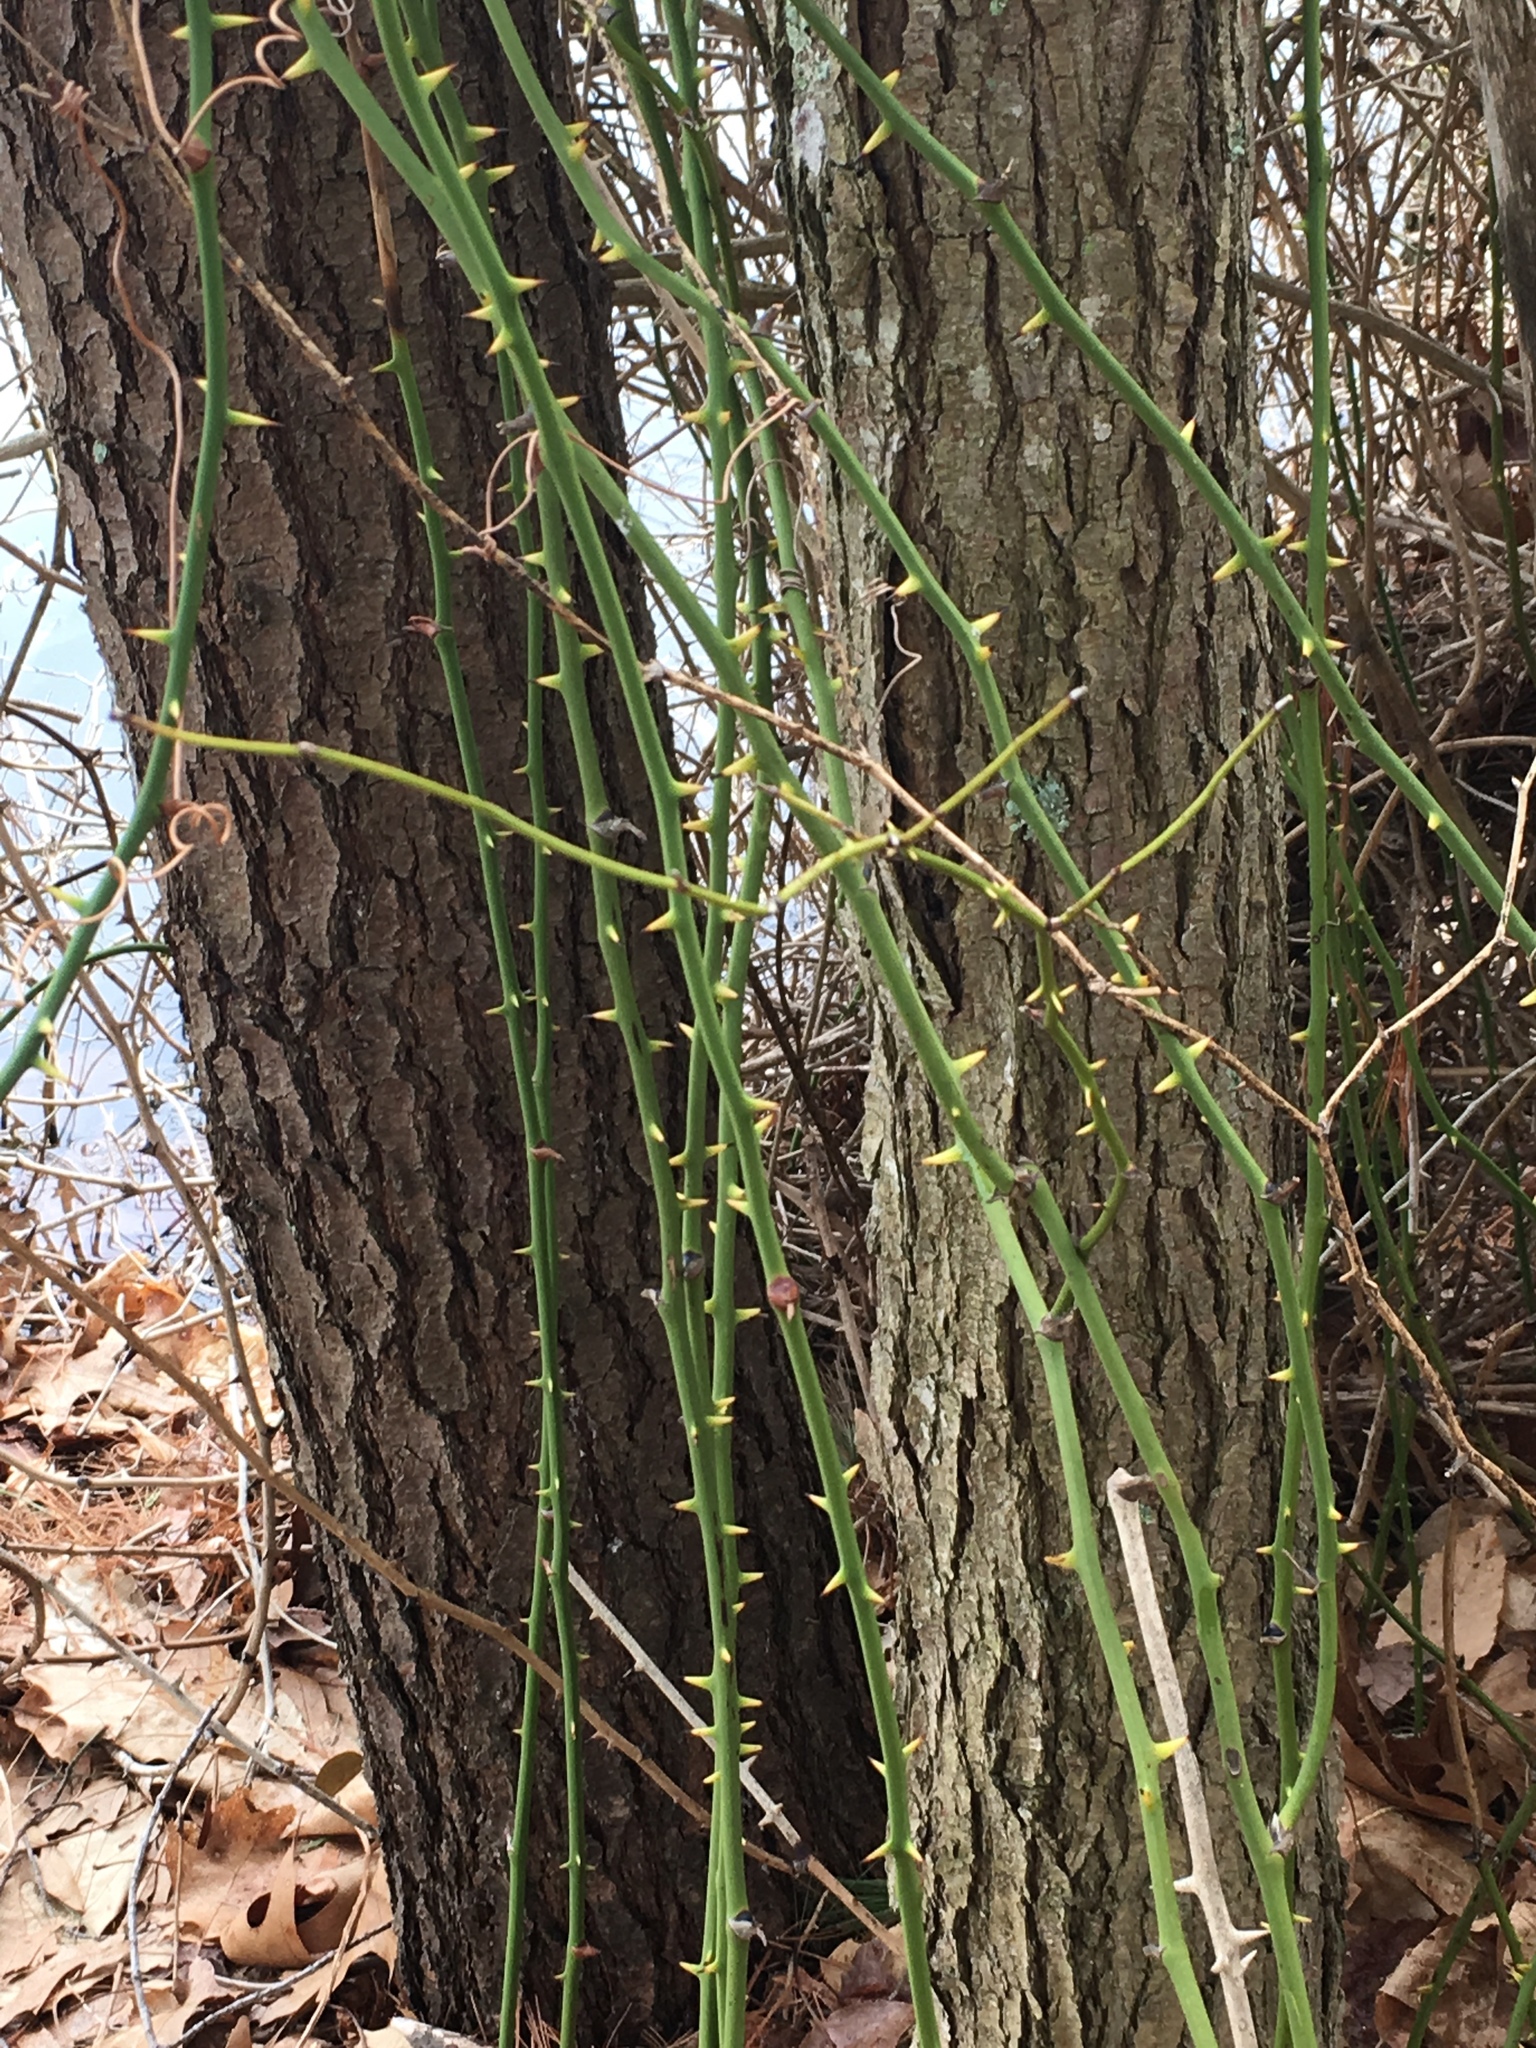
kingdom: Plantae
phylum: Tracheophyta
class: Liliopsida
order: Liliales
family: Smilacaceae
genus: Smilax
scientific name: Smilax rotundifolia
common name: Bullbriar
